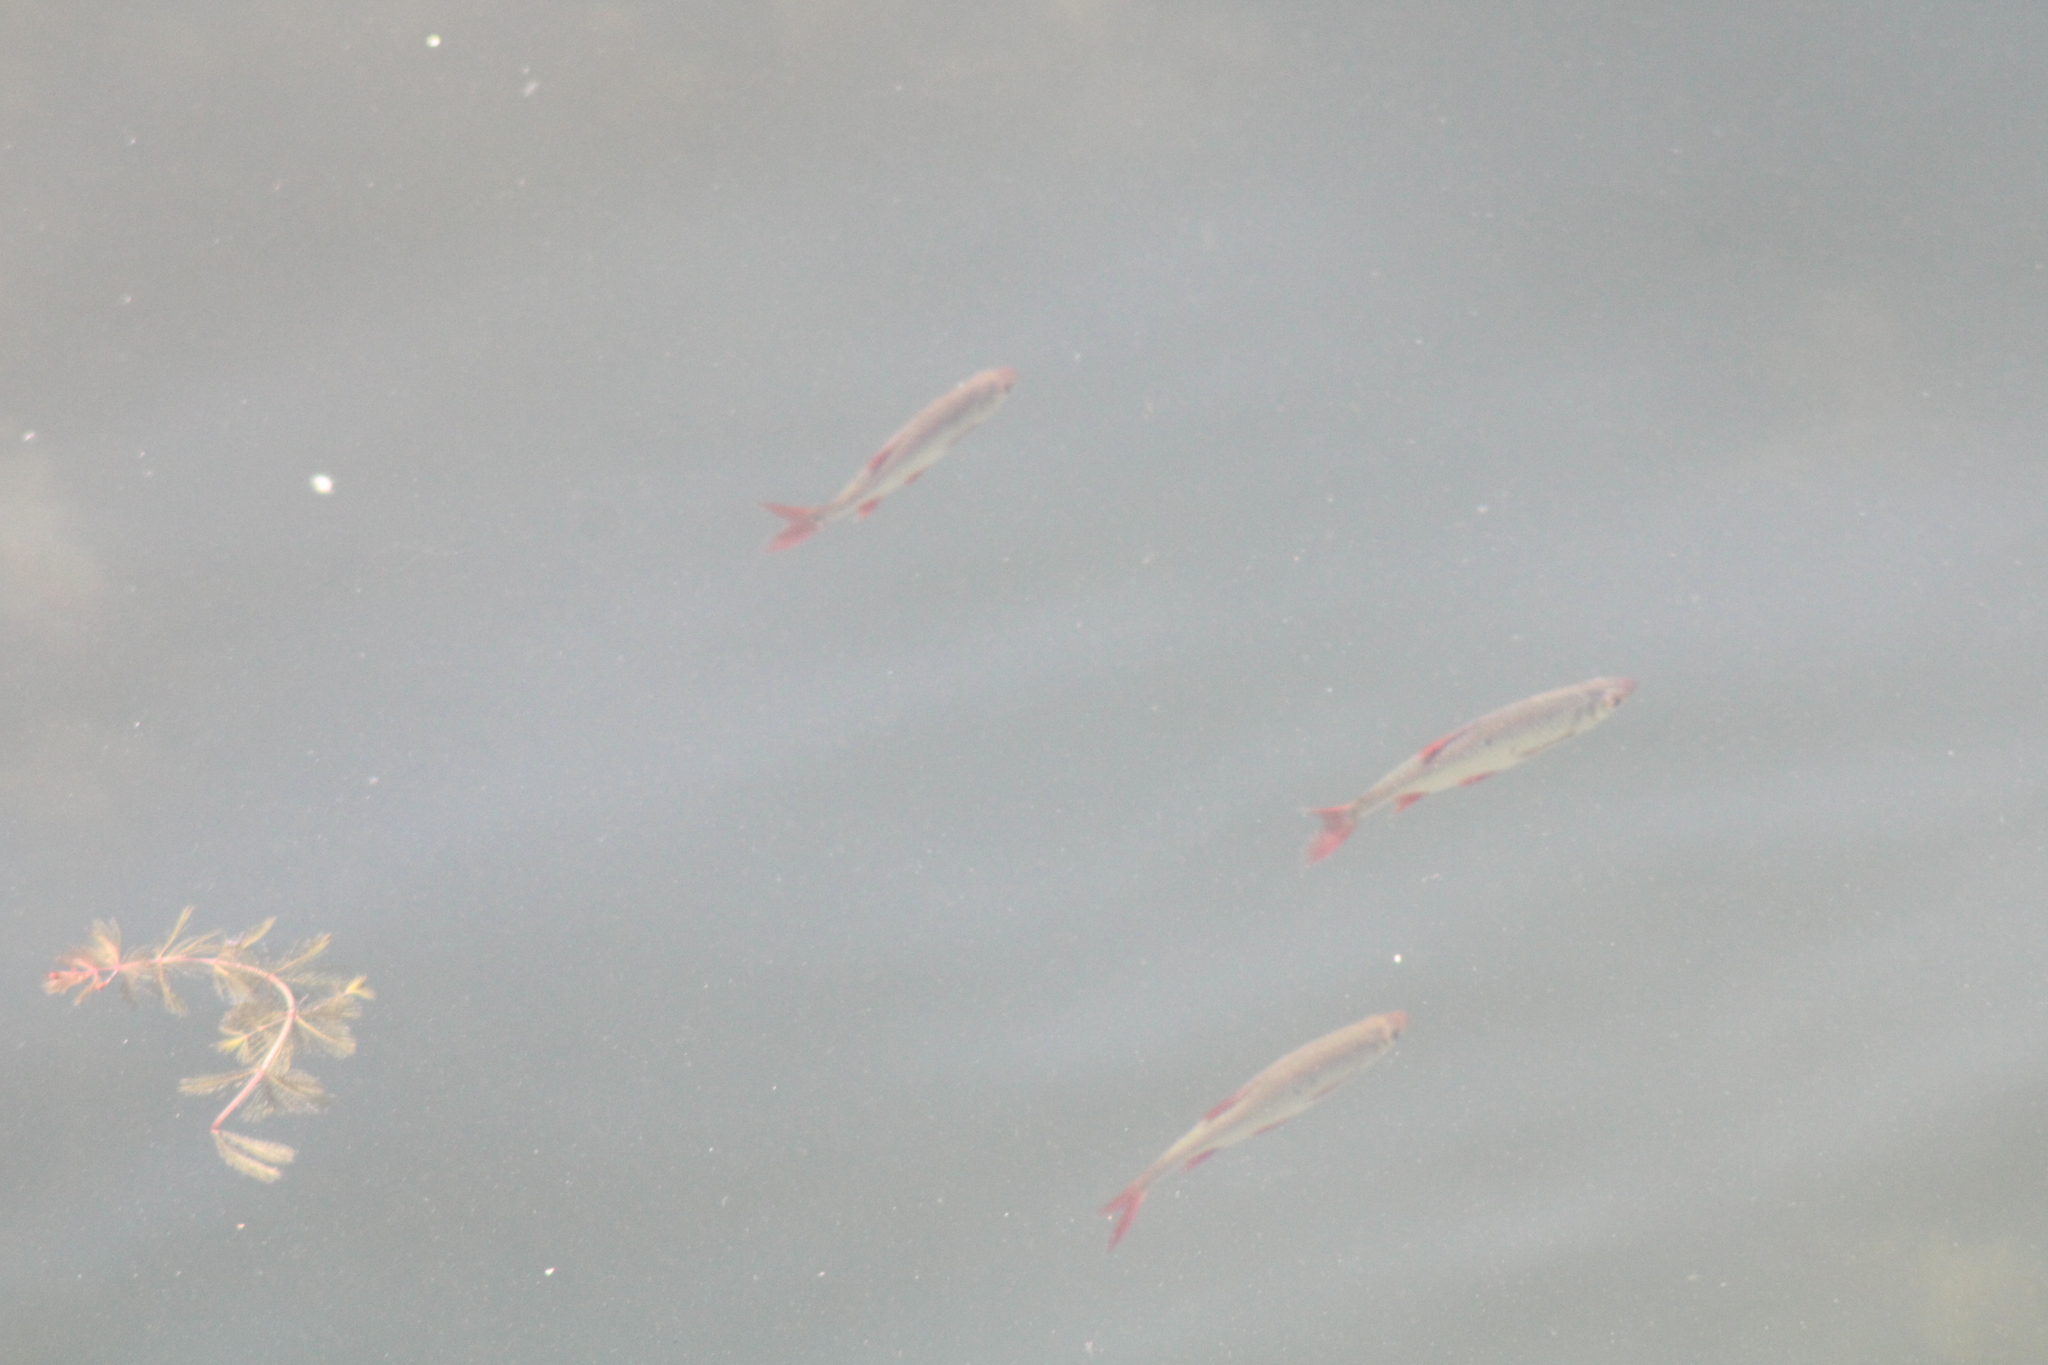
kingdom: Animalia
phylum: Chordata
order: Cypriniformes
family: Cyprinidae
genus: Scardinius
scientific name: Scardinius erythrophthalmus
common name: Rudd
